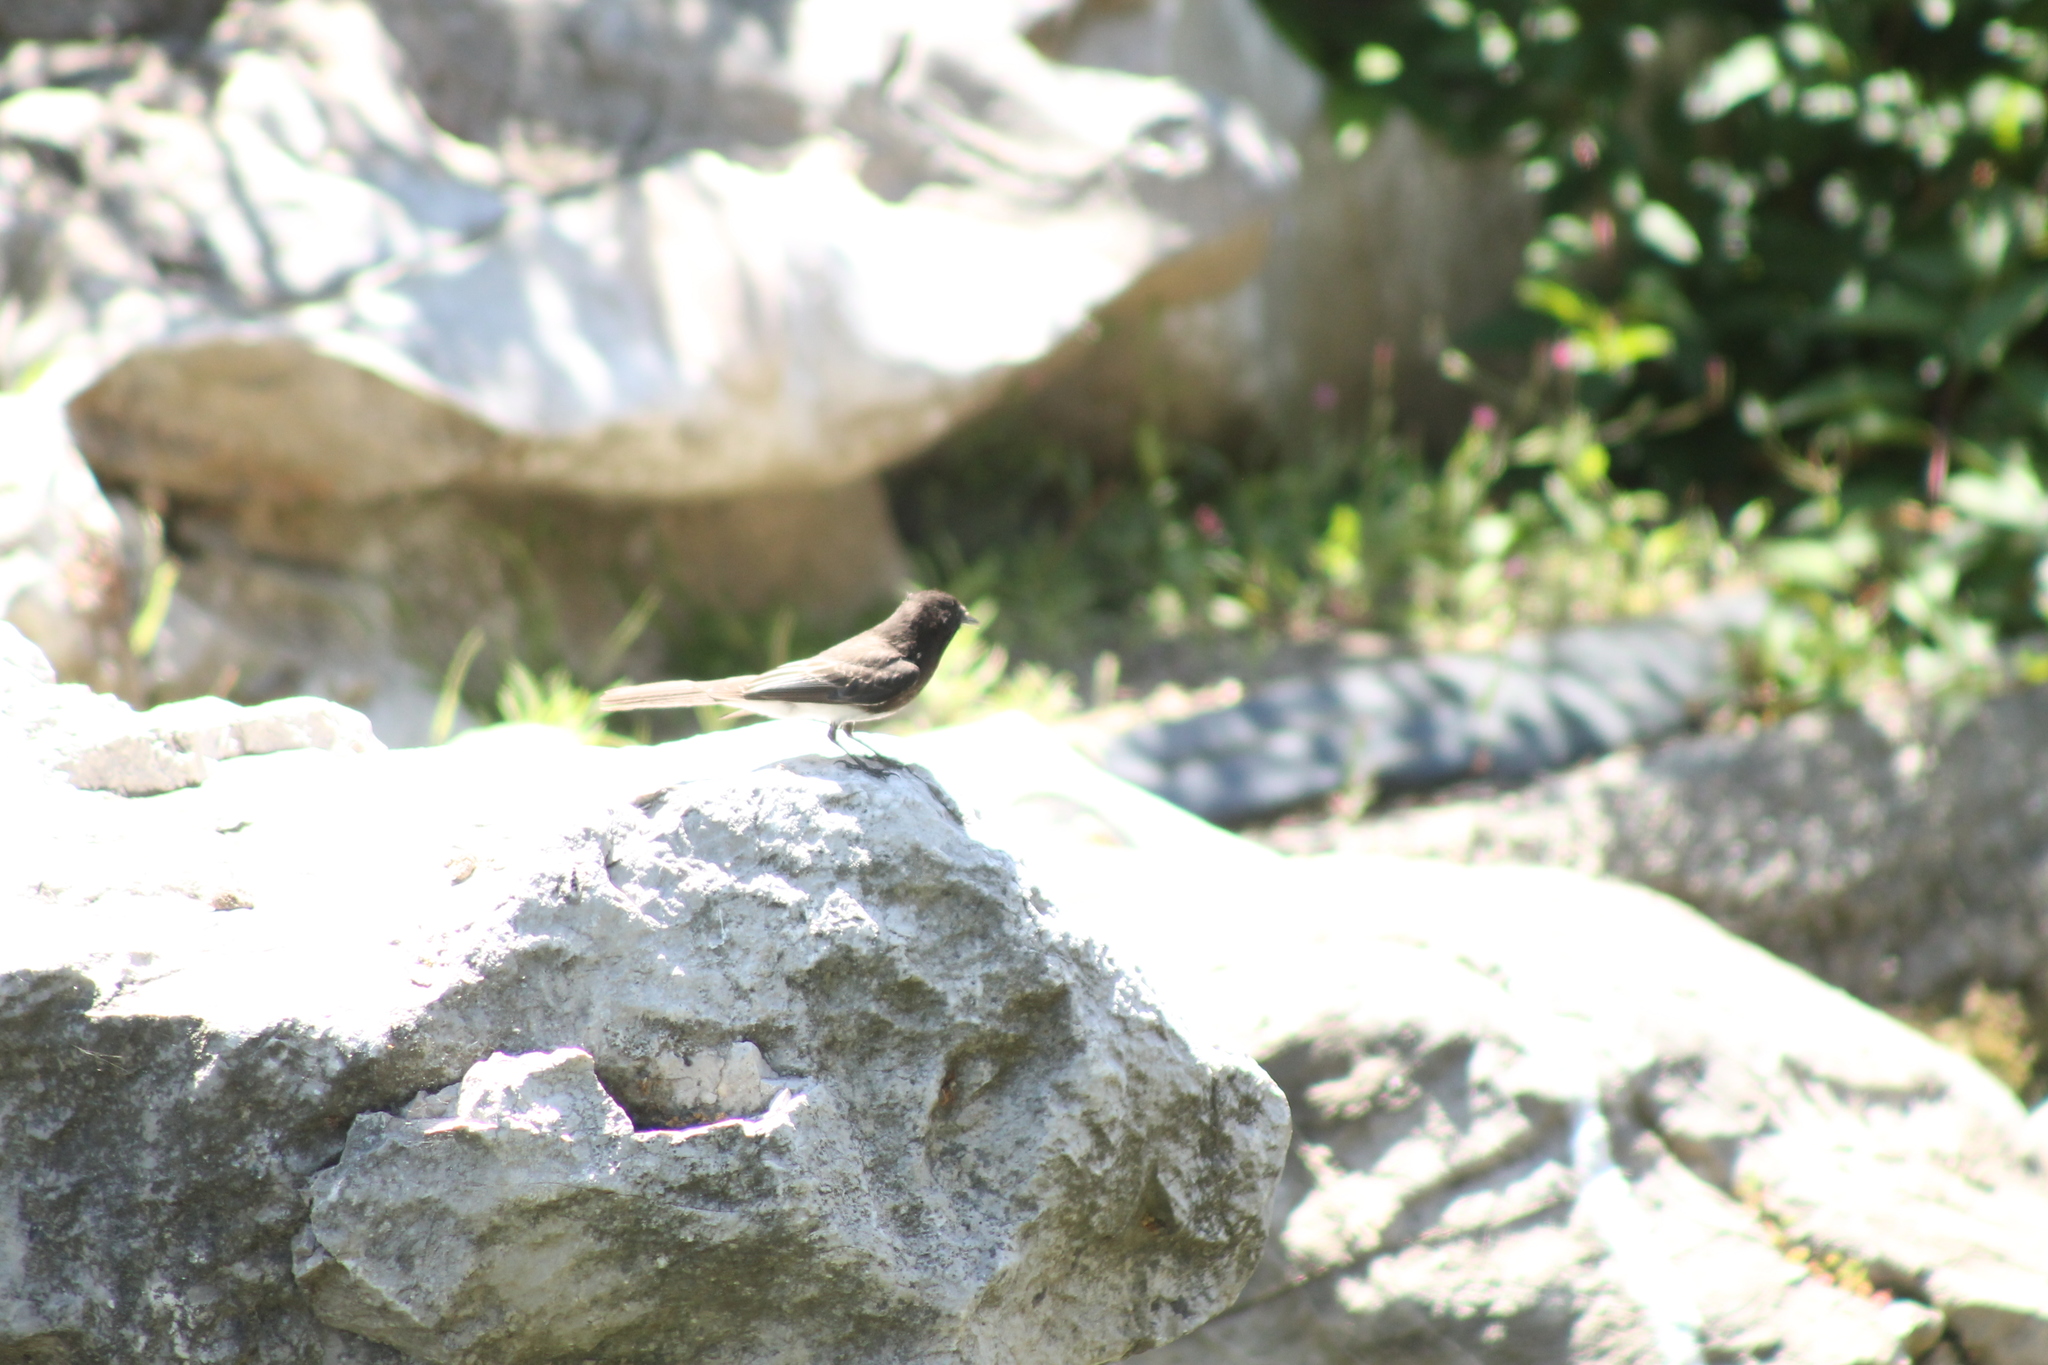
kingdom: Animalia
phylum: Chordata
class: Aves
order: Passeriformes
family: Tyrannidae
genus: Sayornis
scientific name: Sayornis nigricans
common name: Black phoebe
